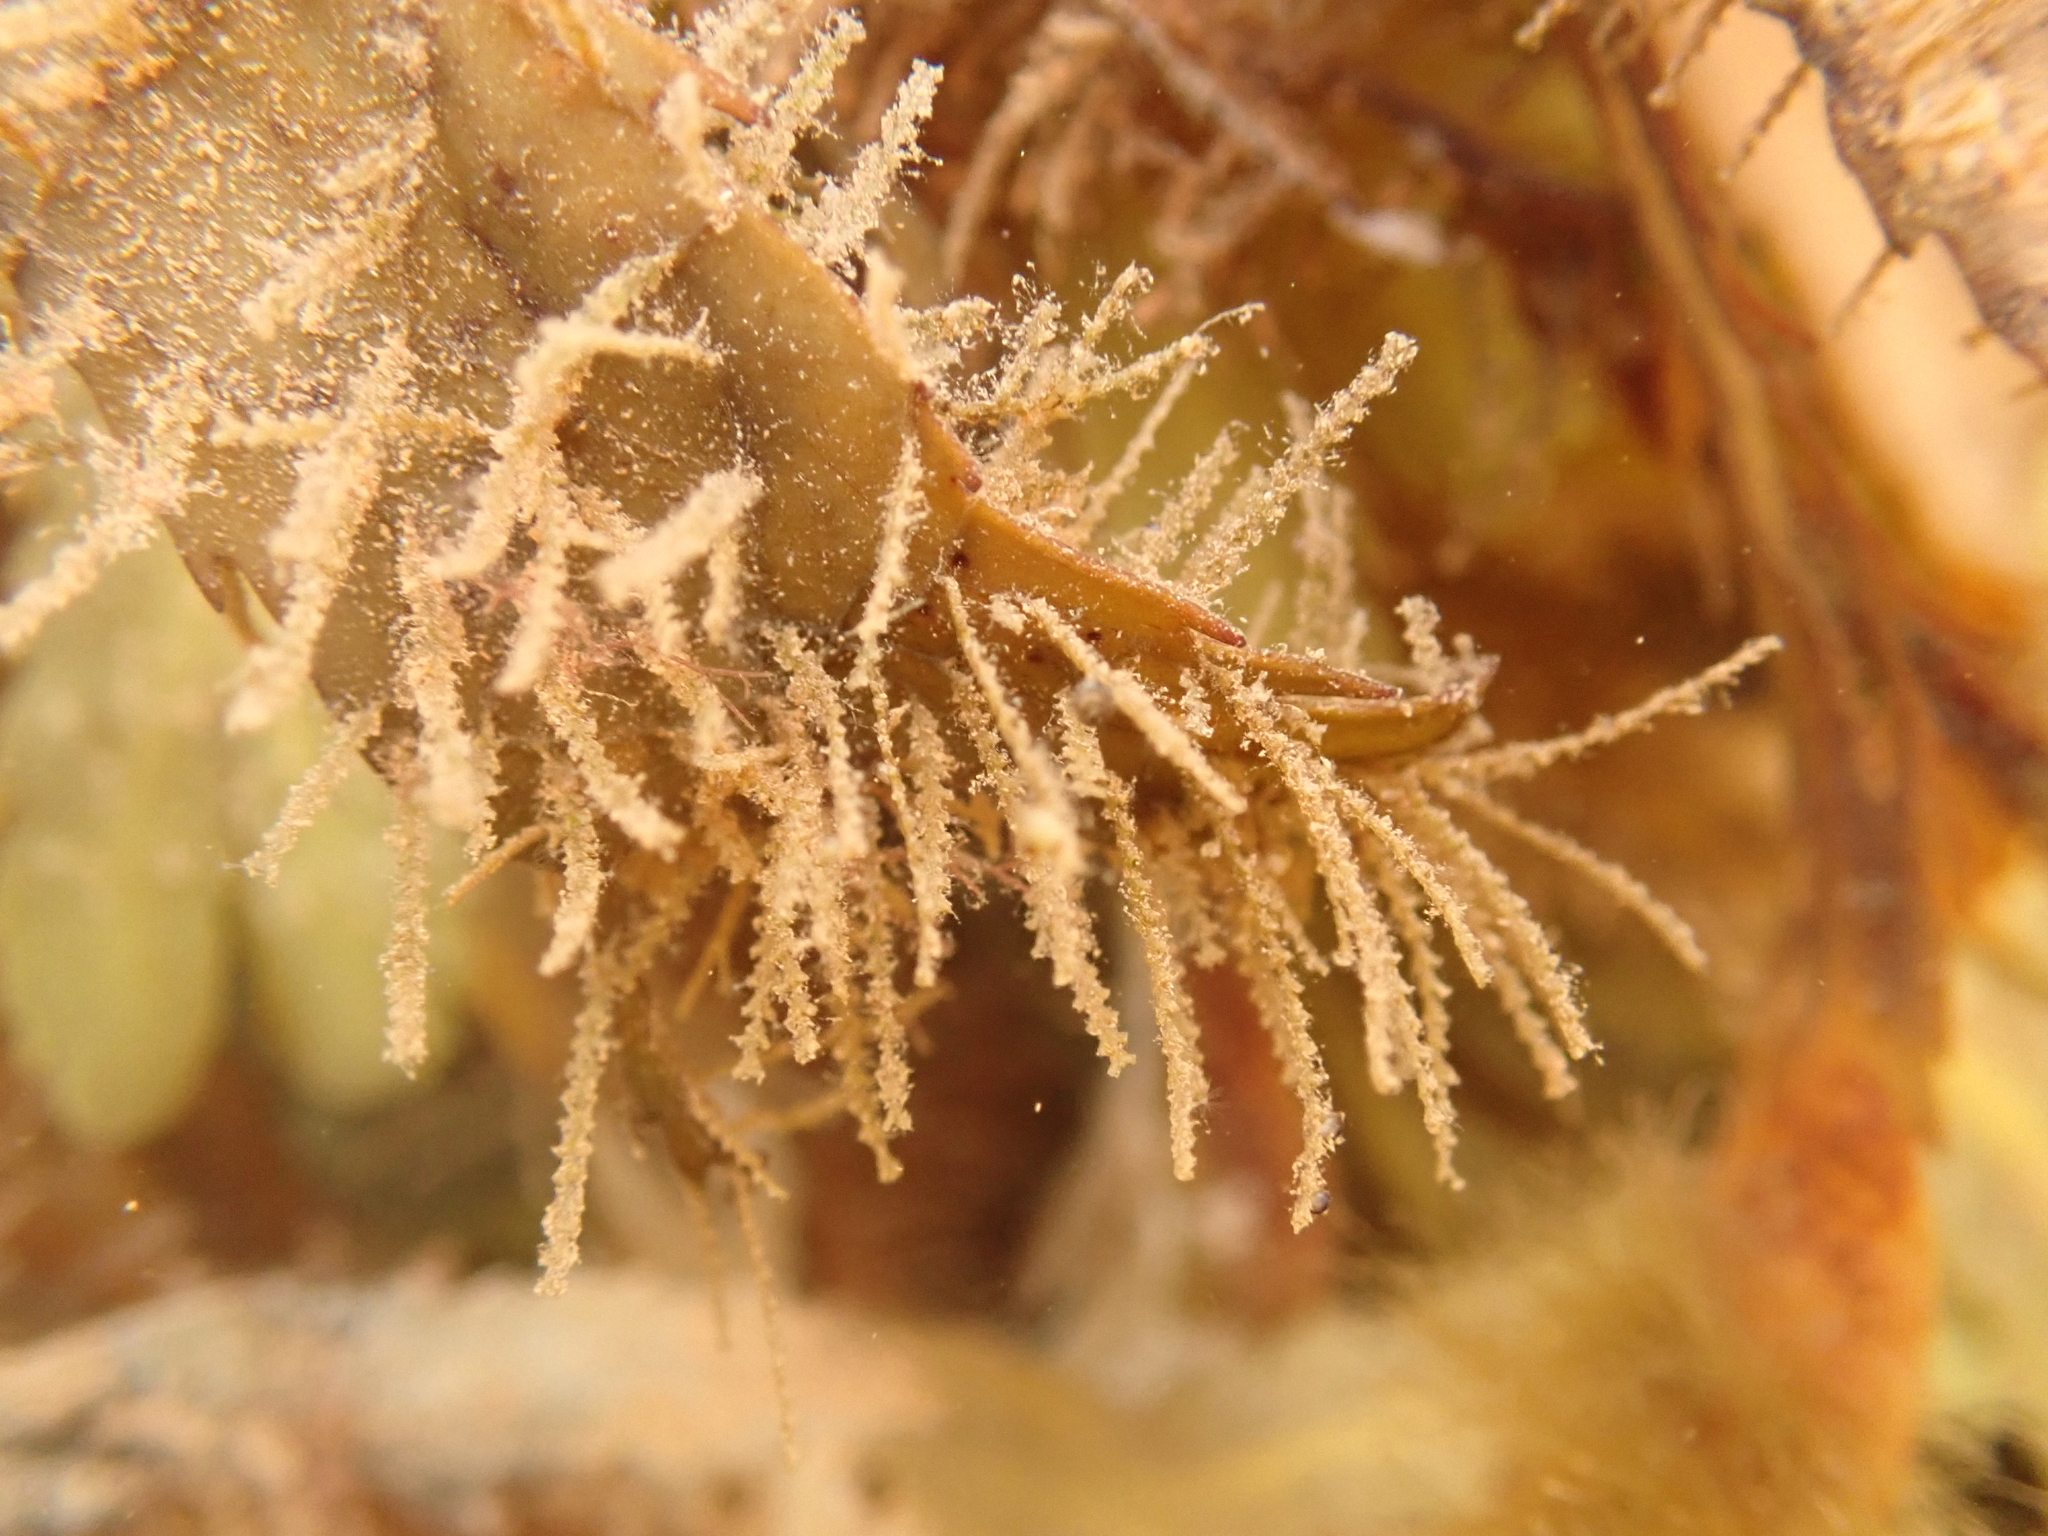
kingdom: Animalia
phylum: Cnidaria
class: Hydrozoa
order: Leptothecata
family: Sertulariidae
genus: Dynamena
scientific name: Dynamena pumila
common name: Sea oak
